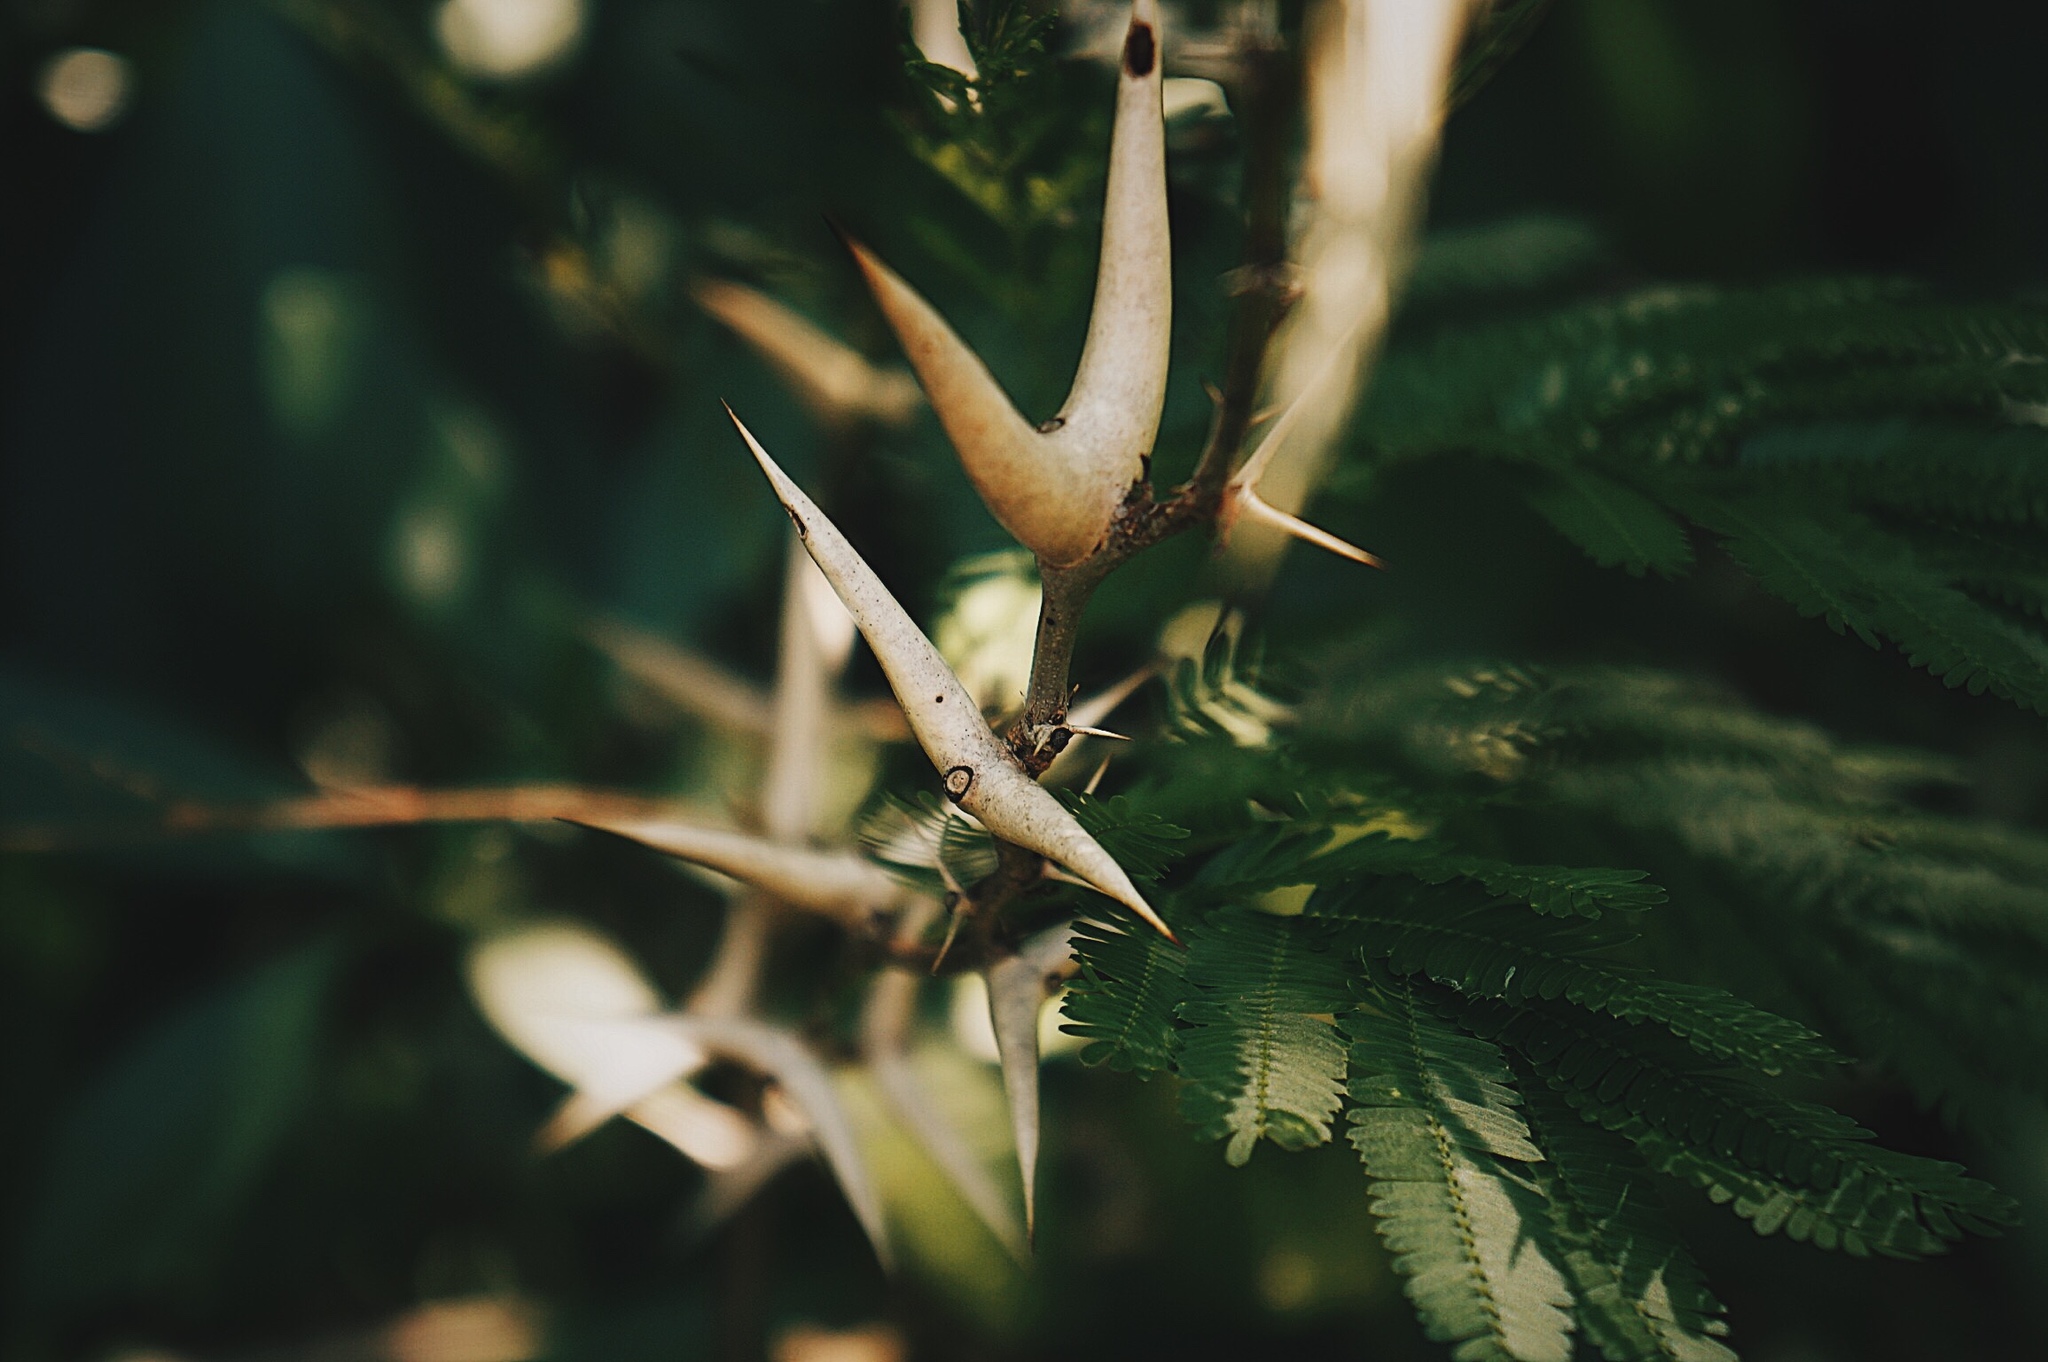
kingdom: Plantae
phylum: Tracheophyta
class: Magnoliopsida
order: Fabales
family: Fabaceae
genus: Vachellia
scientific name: Vachellia cornigera
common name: Bullhorn wattle
